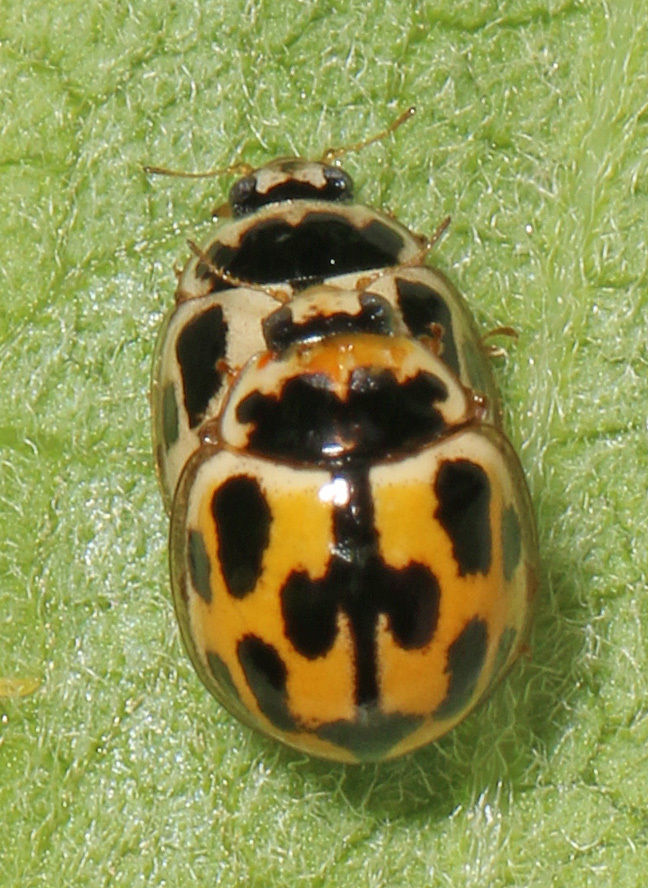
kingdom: Animalia
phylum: Arthropoda
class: Insecta
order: Coleoptera
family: Coccinellidae
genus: Propylaea
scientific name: Propylaea quatuordecimpunctata
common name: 14-spotted ladybird beetle
